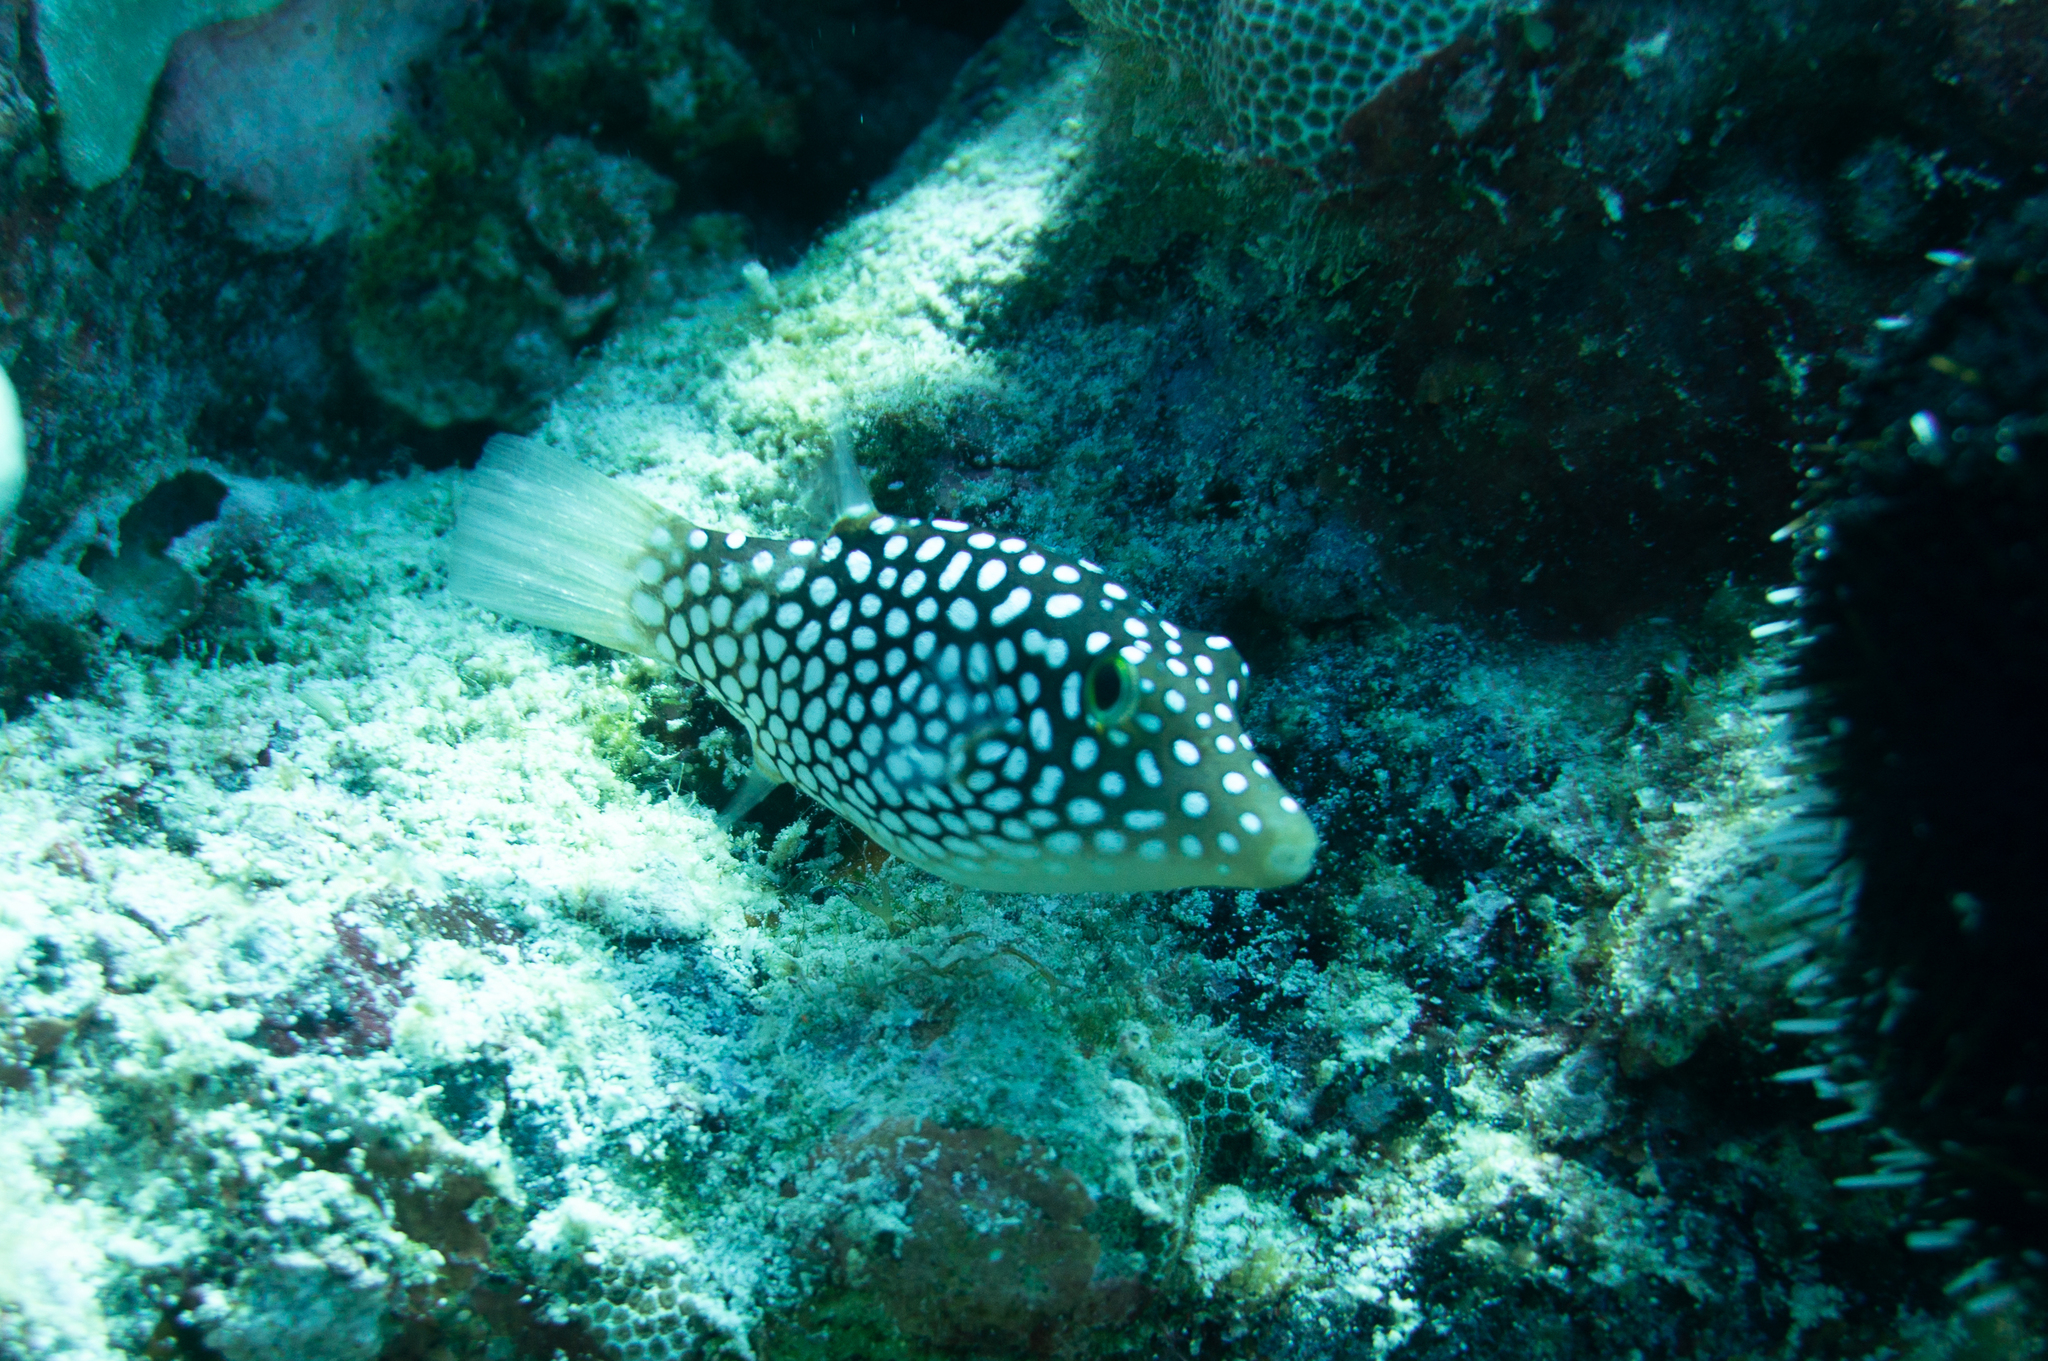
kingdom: Animalia
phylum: Chordata
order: Tetraodontiformes
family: Tetraodontidae
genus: Canthigaster
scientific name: Canthigaster jactator
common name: Hawaiian whitespotted toby
